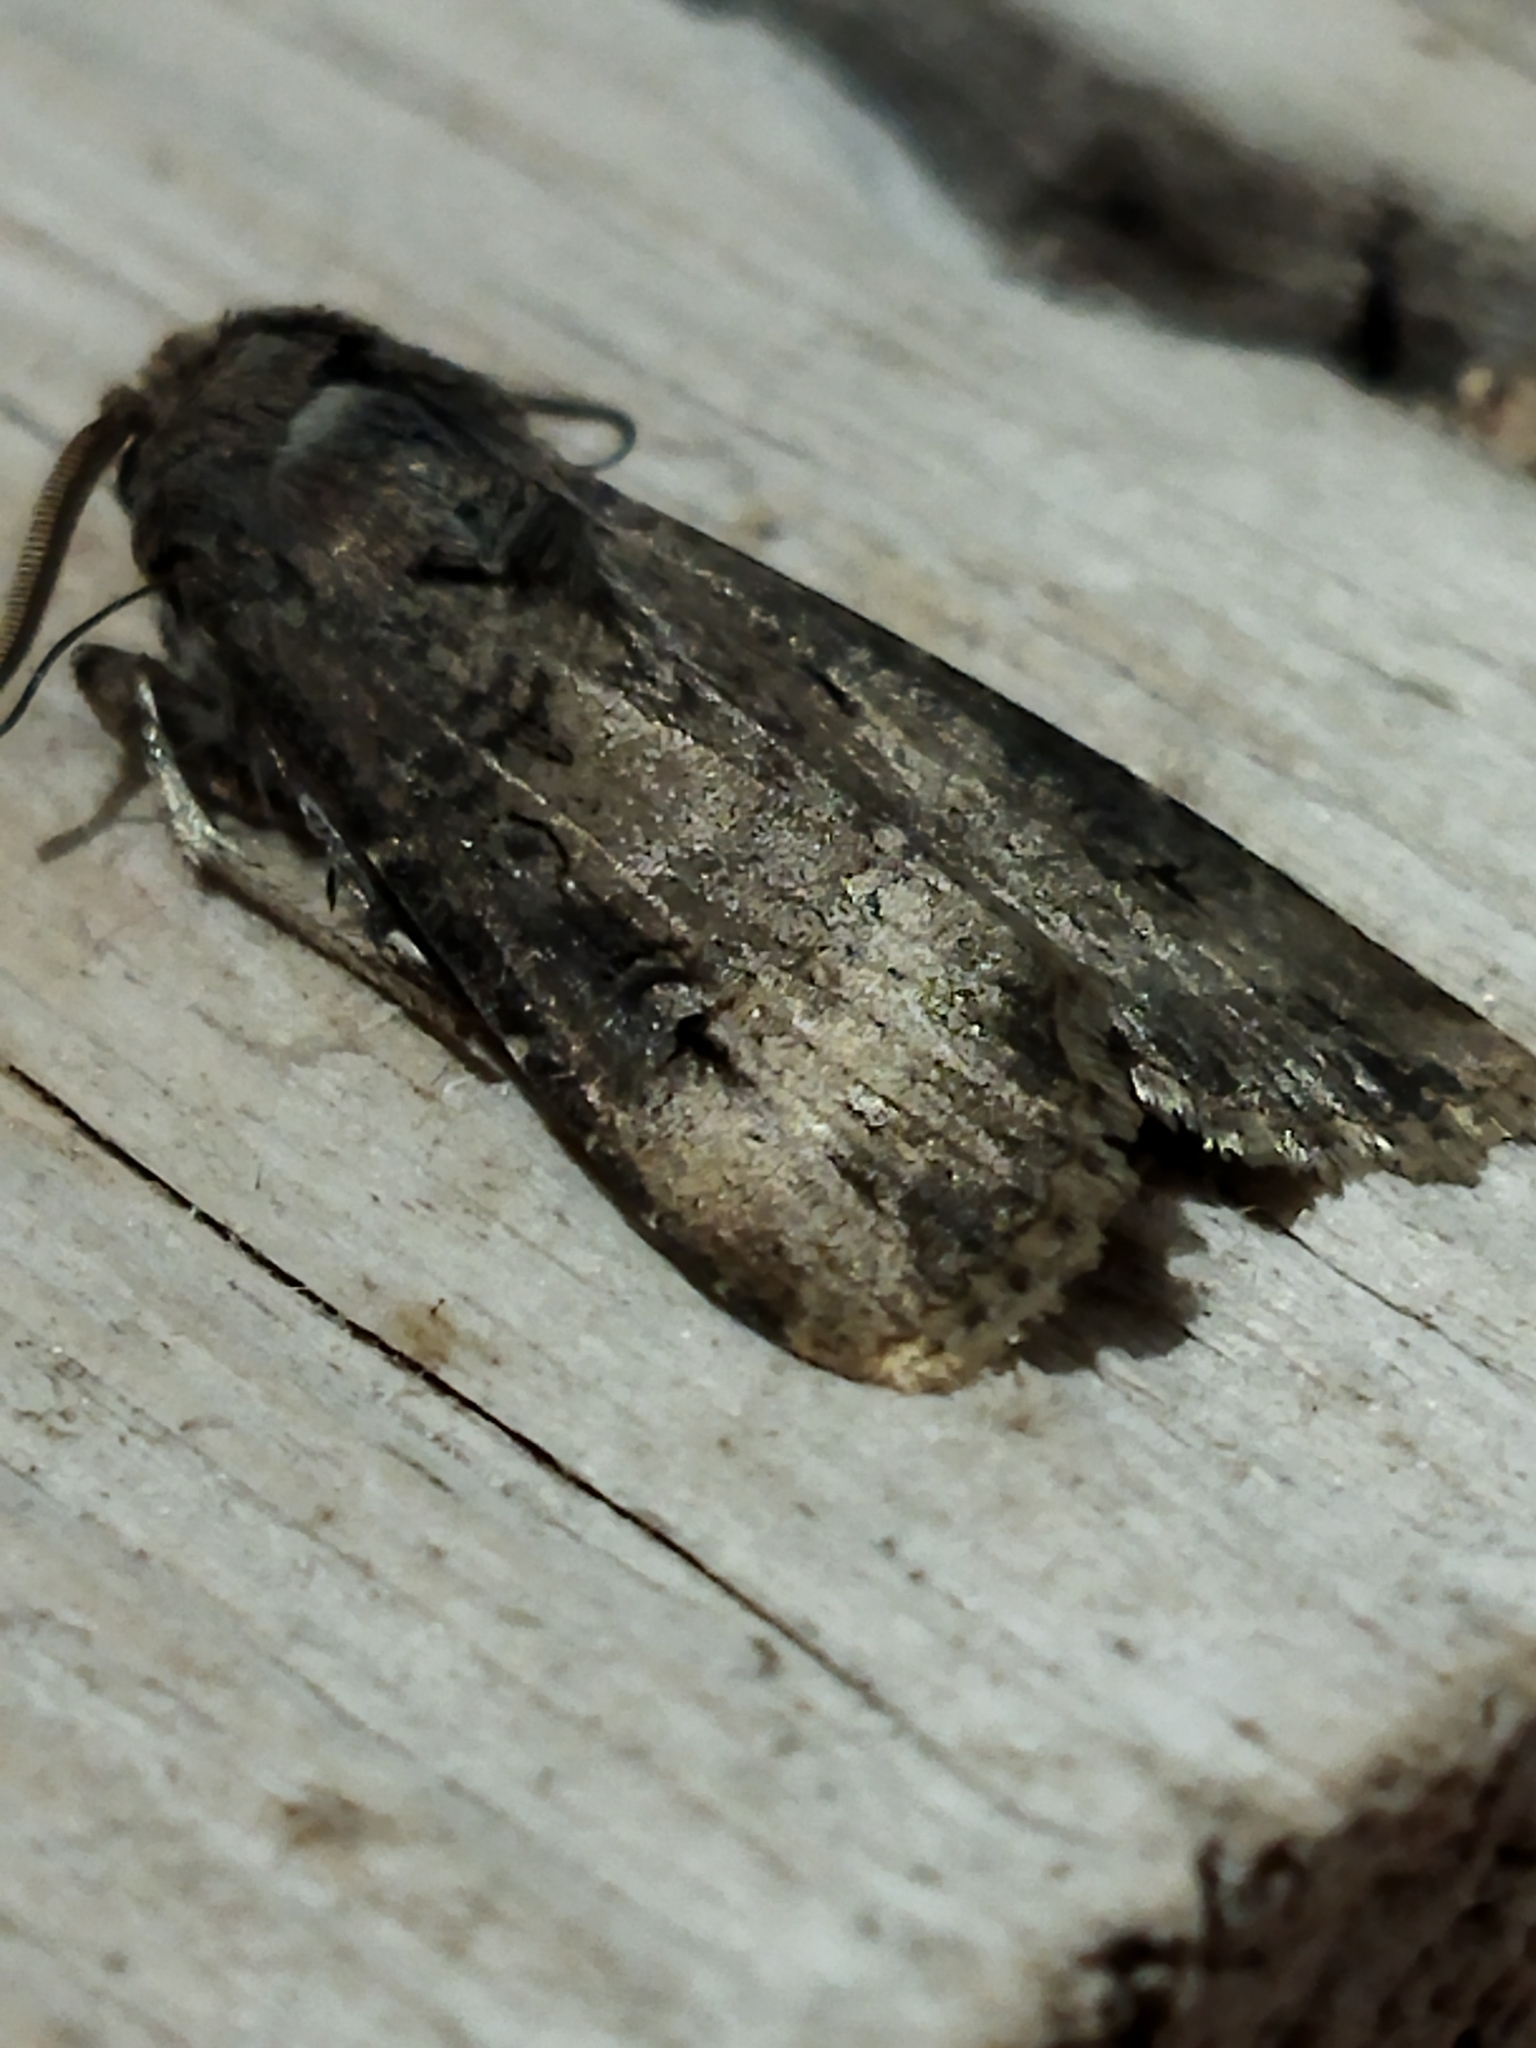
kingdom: Animalia
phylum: Arthropoda
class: Insecta
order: Lepidoptera
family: Noctuidae
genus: Agrotis
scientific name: Agrotis ipsilon
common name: Dark sword-grass
